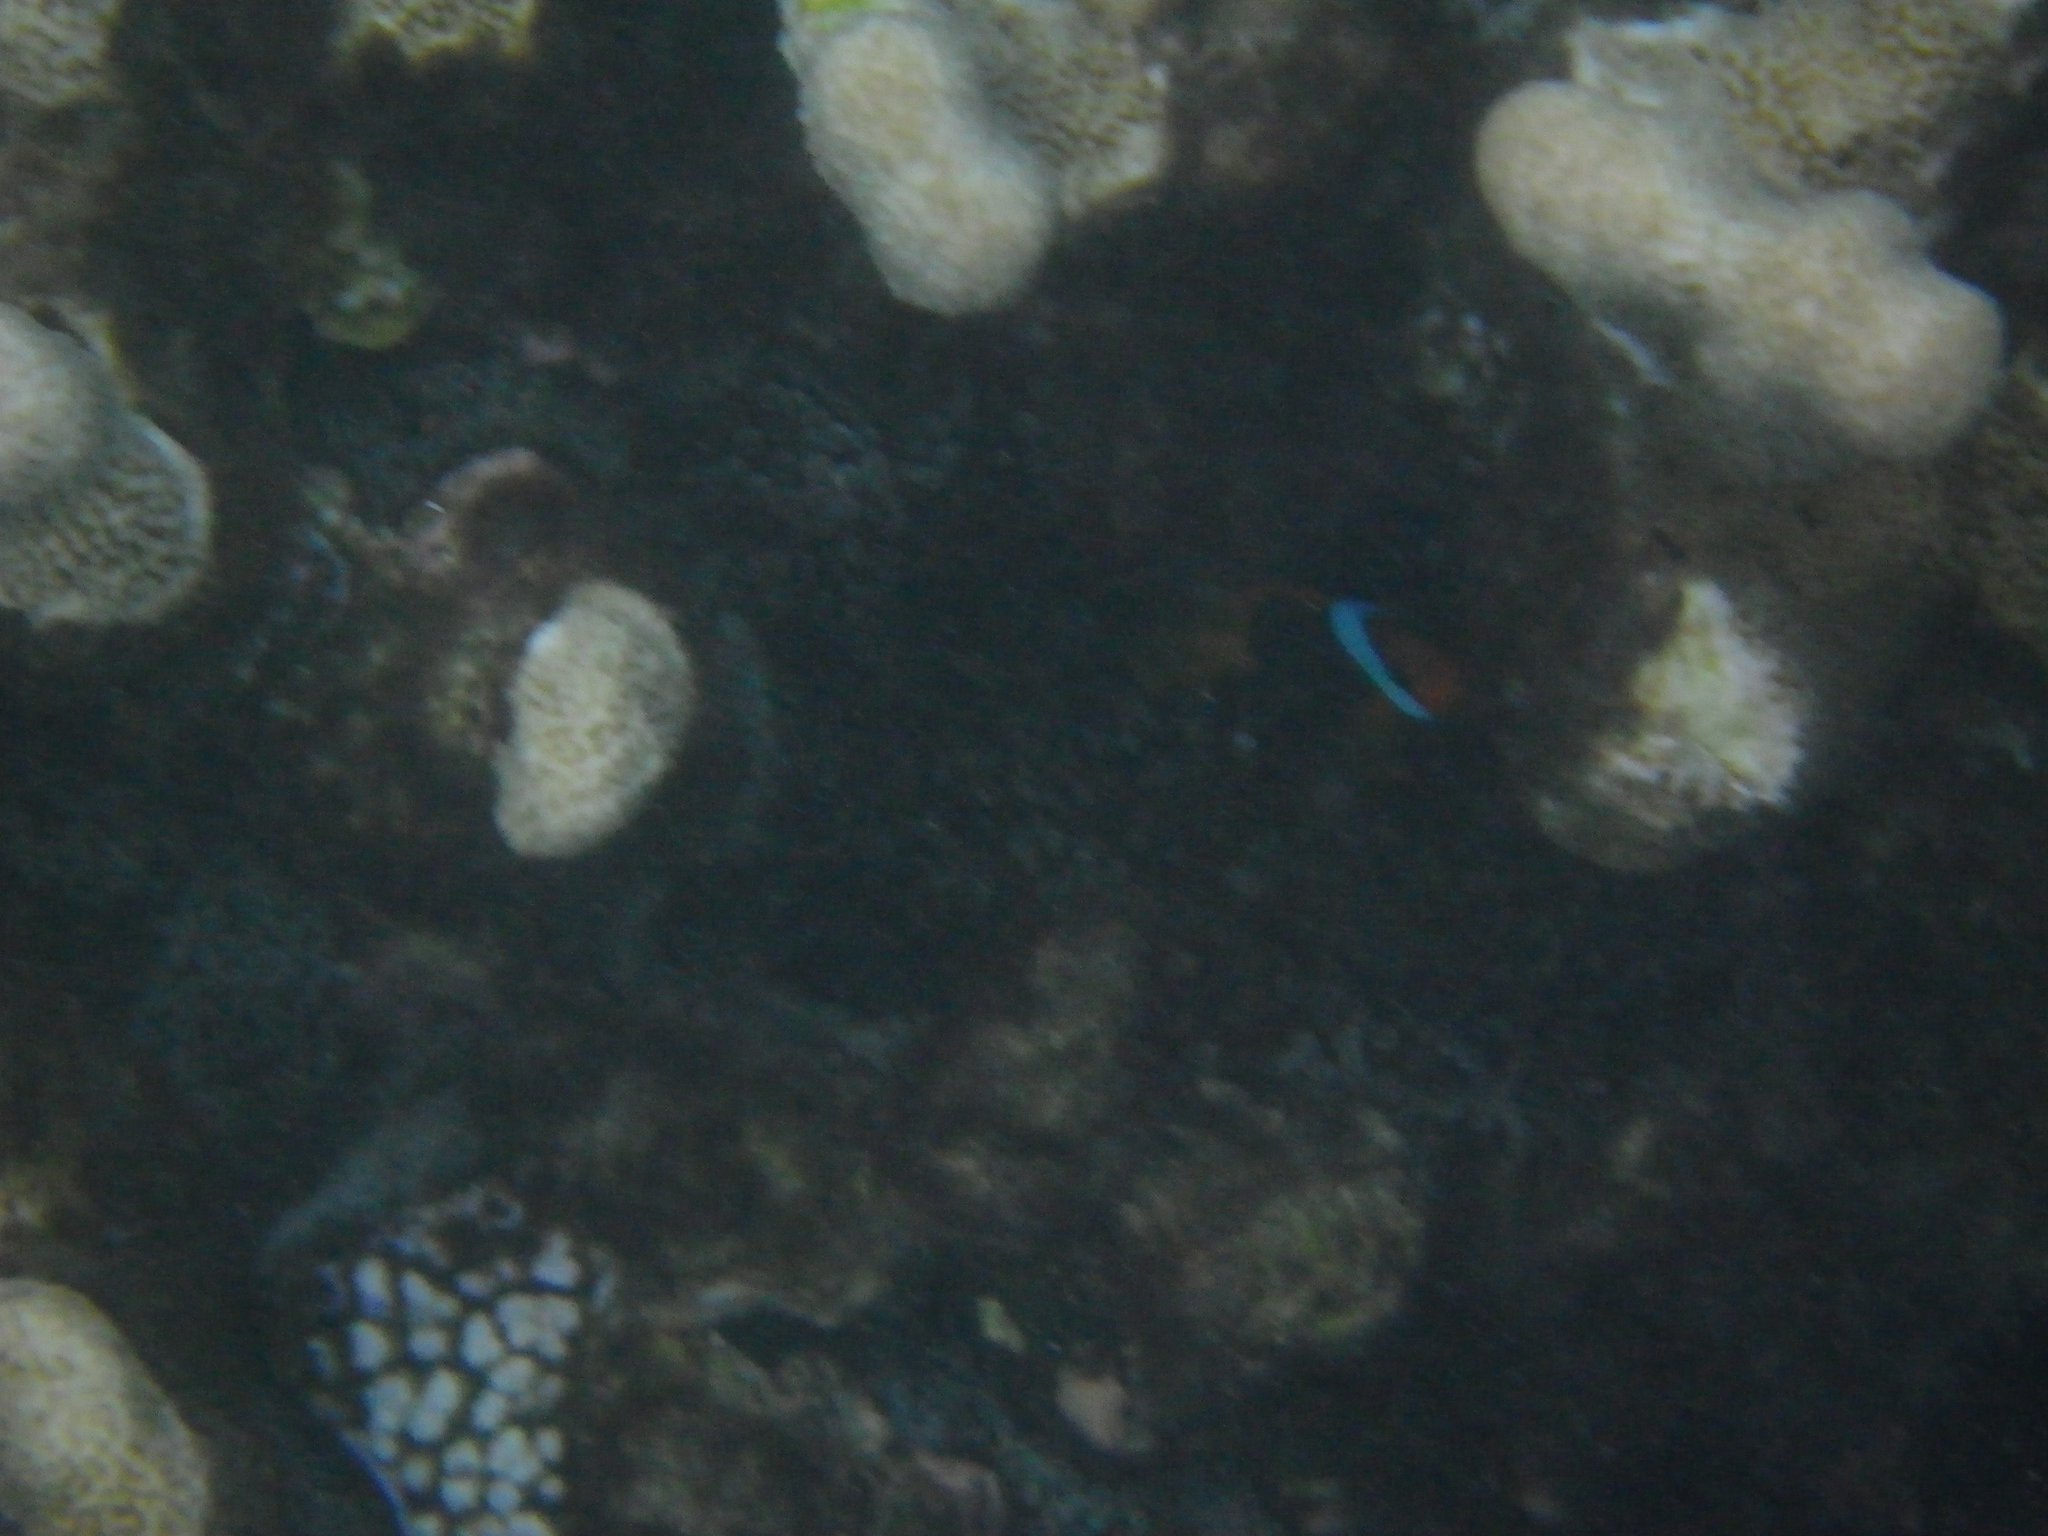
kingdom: Animalia
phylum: Chordata
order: Perciformes
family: Pomacentridae
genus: Amphiprion
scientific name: Amphiprion melanopus
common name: Black anemonefish
